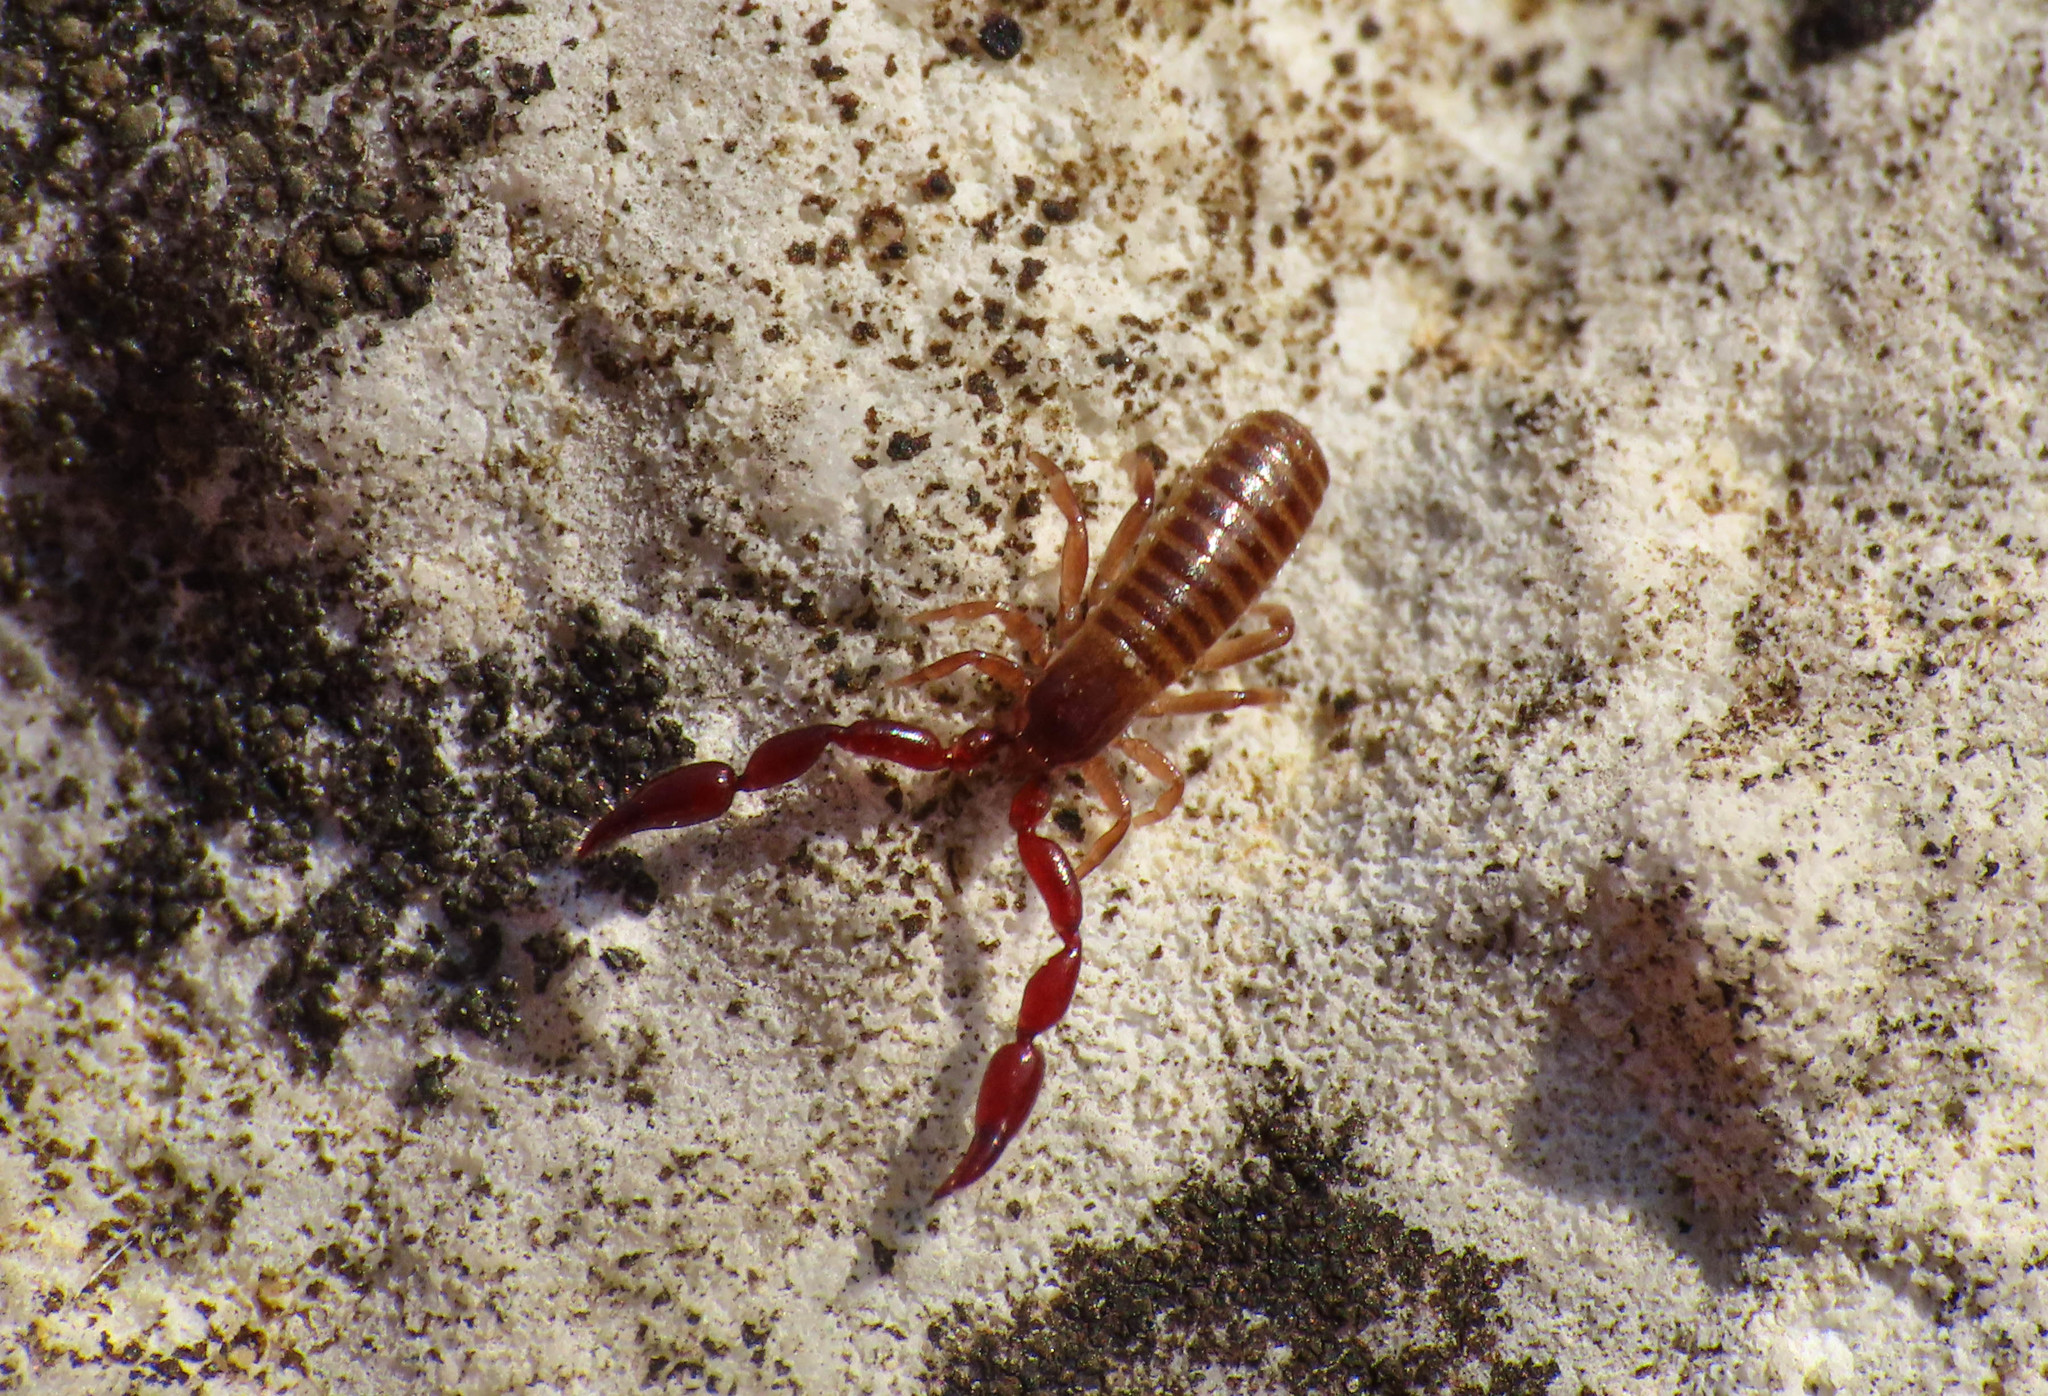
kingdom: Animalia
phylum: Arthropoda
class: Arachnida
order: Pseudoscorpiones
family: Atemnidae
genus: Atemnus
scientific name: Atemnus politus
